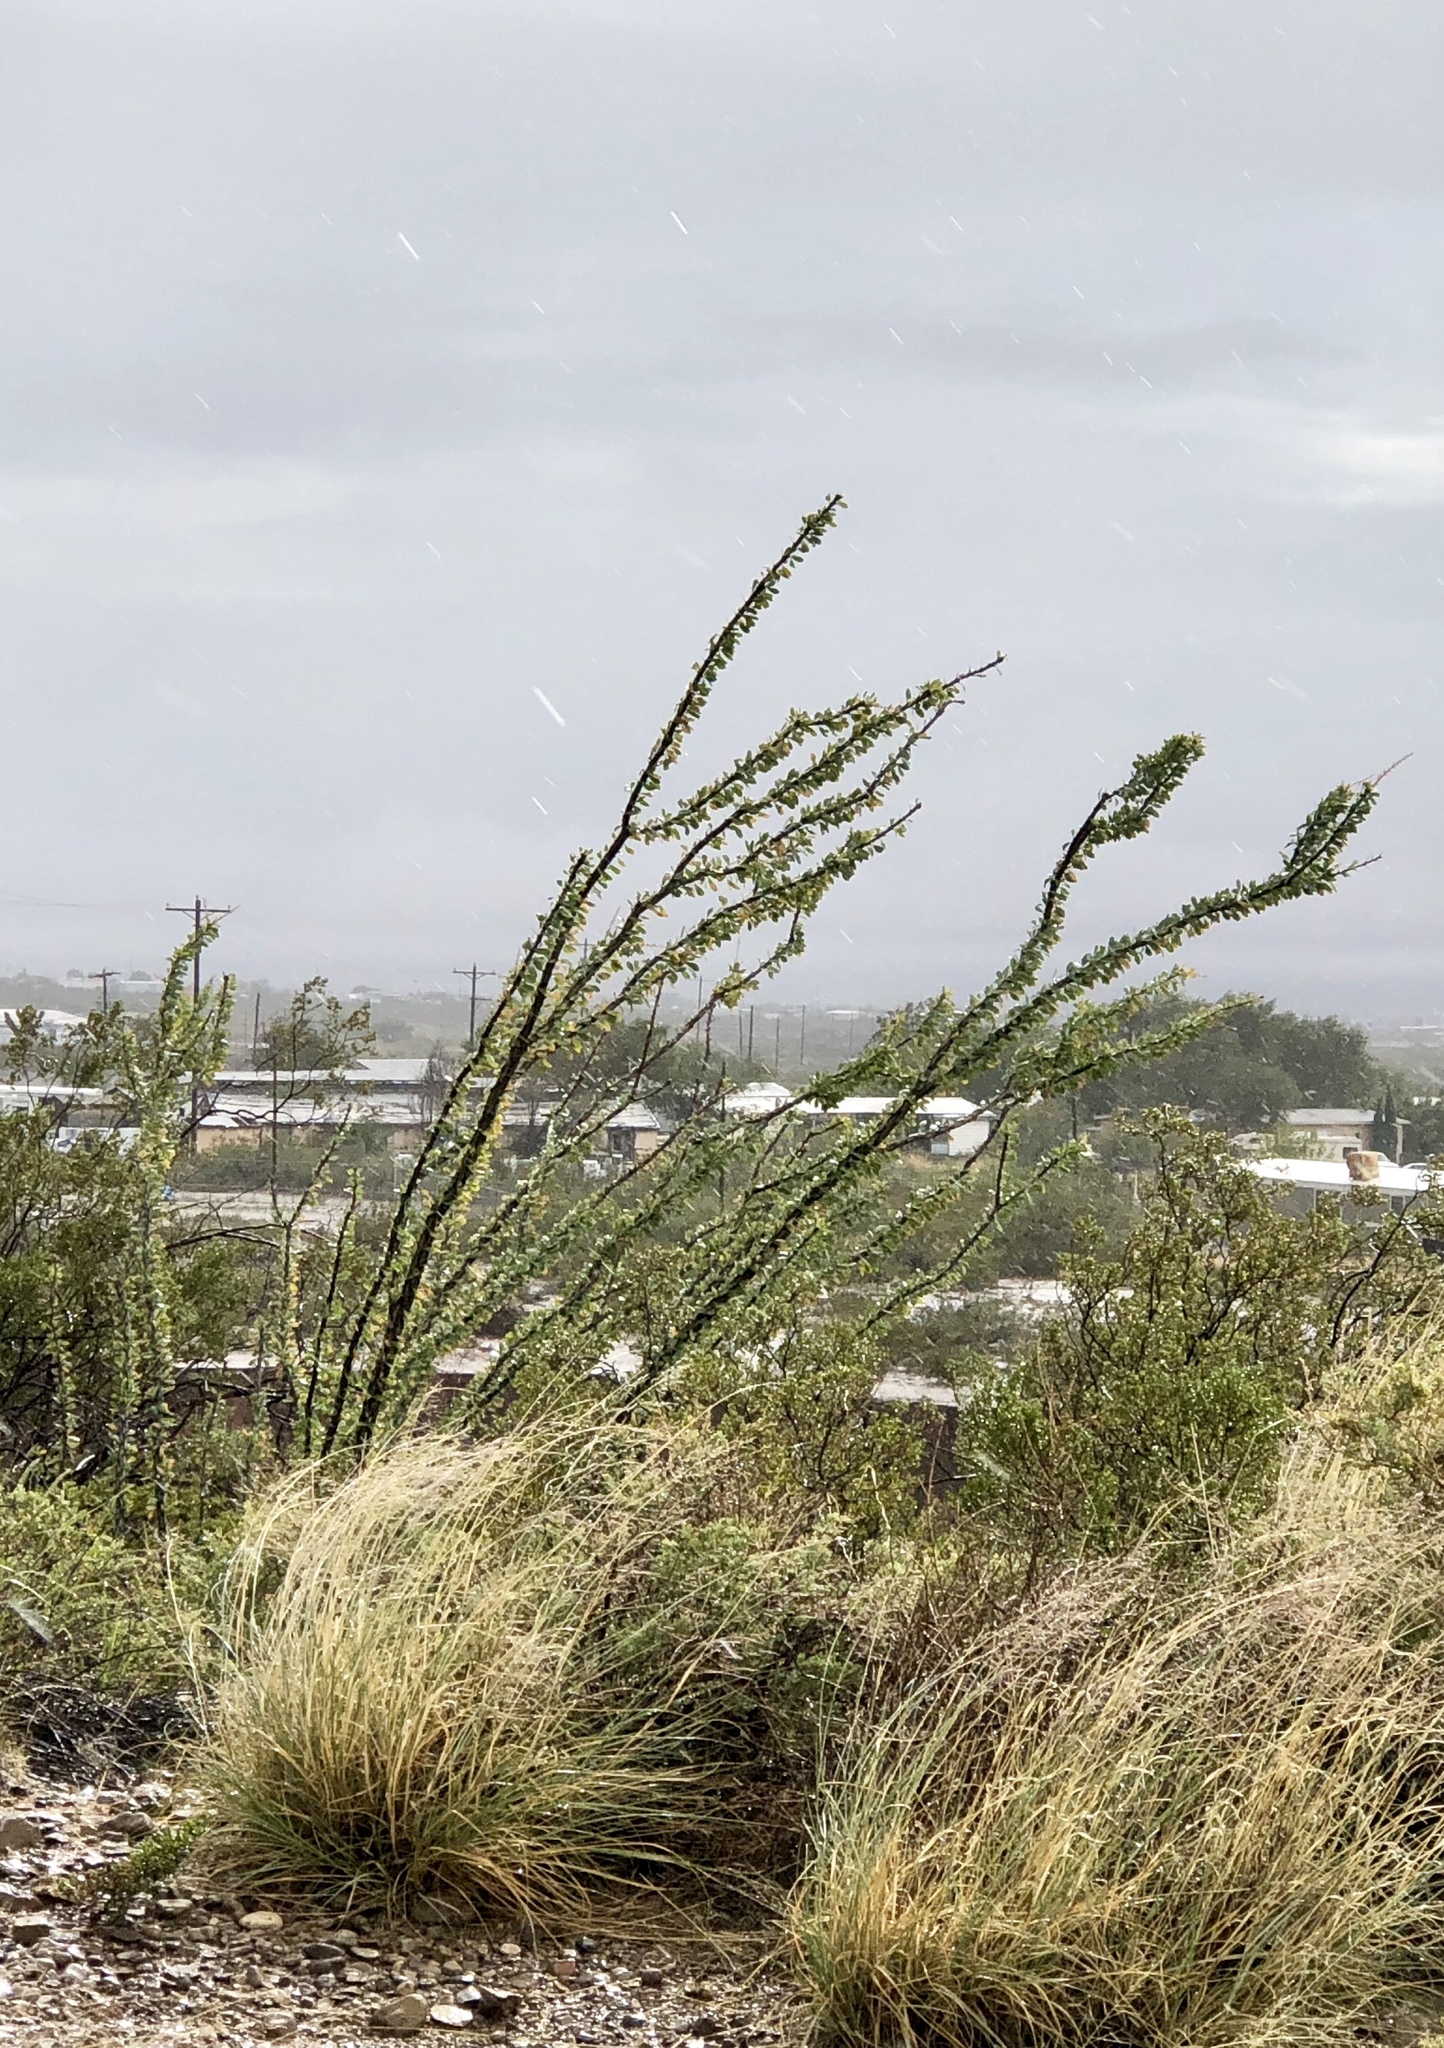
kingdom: Plantae
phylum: Tracheophyta
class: Magnoliopsida
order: Ericales
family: Fouquieriaceae
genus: Fouquieria
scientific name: Fouquieria splendens
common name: Vine-cactus
